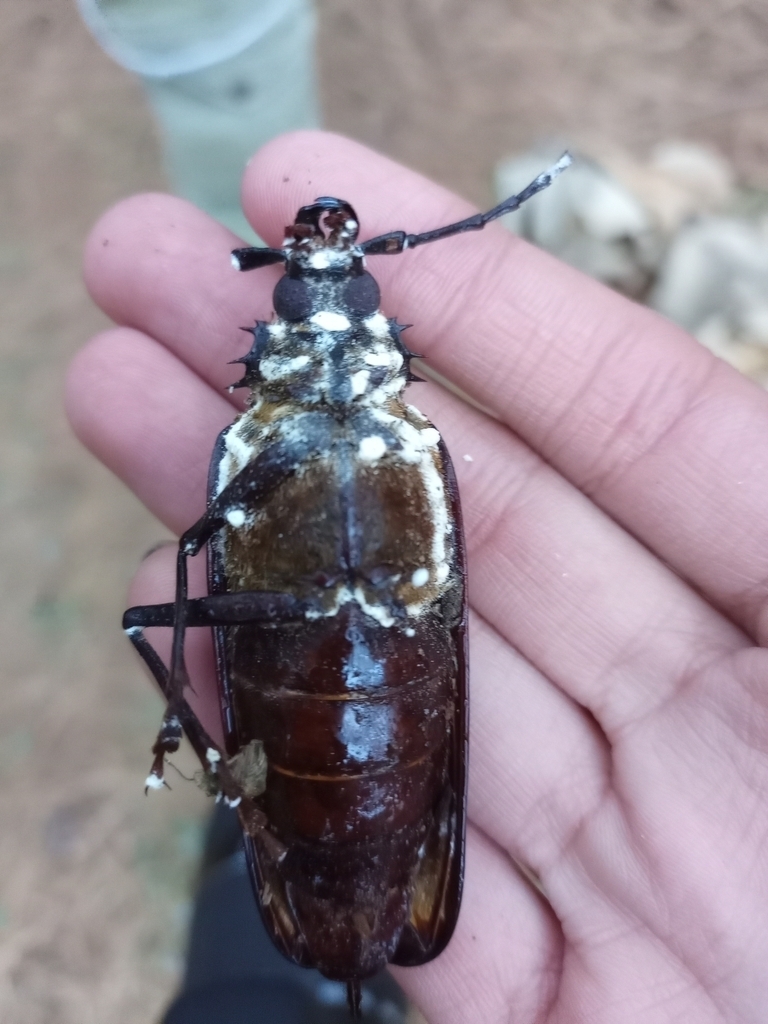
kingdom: Fungi
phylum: Ascomycota
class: Sordariomycetes
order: Hypocreales
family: Cordycipitaceae
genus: Beauveria
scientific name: Beauveria bassiana
